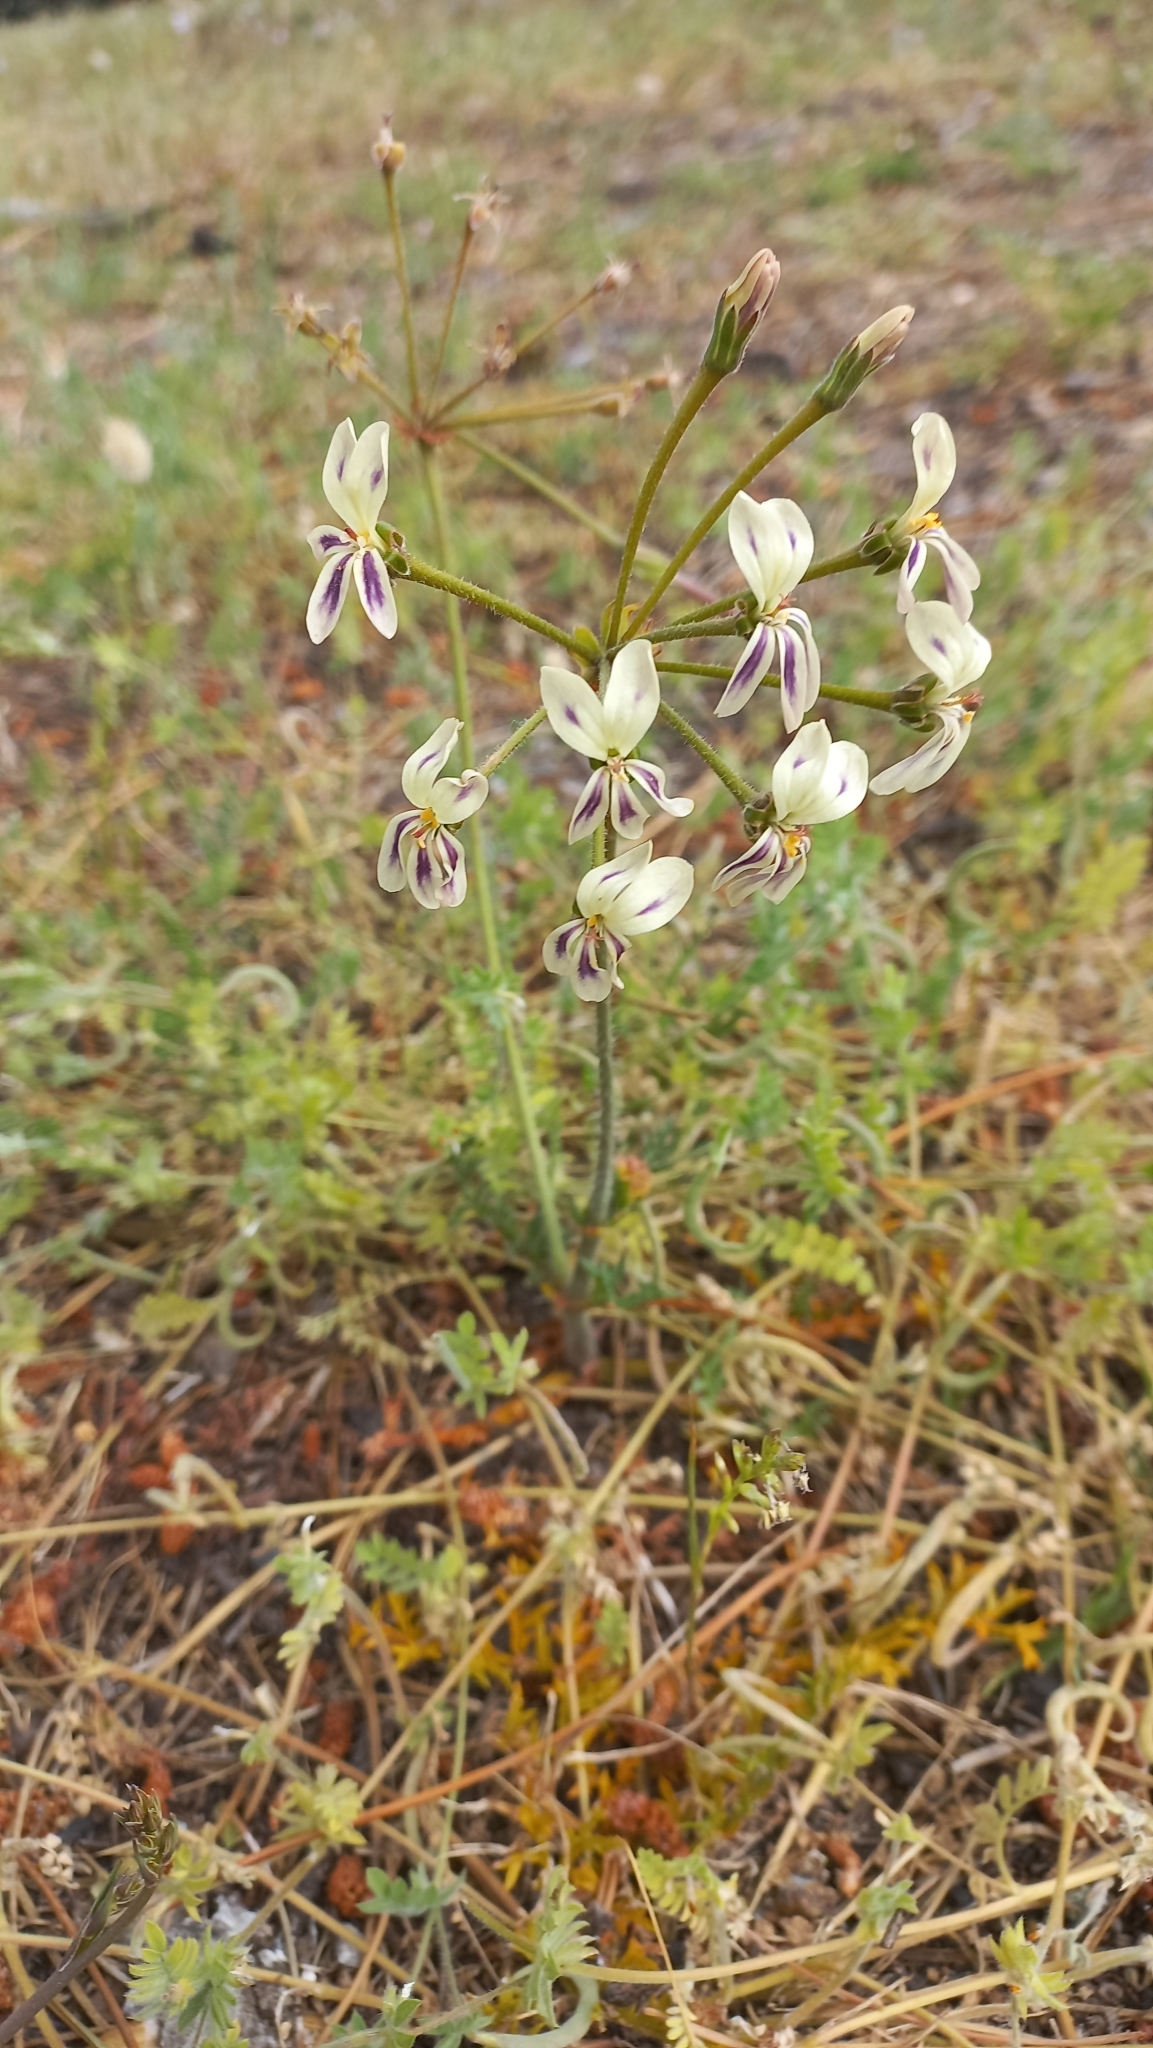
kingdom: Plantae
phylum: Tracheophyta
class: Magnoliopsida
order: Geraniales
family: Geraniaceae
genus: Pelargonium
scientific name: Pelargonium triste
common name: Night-scent pelargonium
